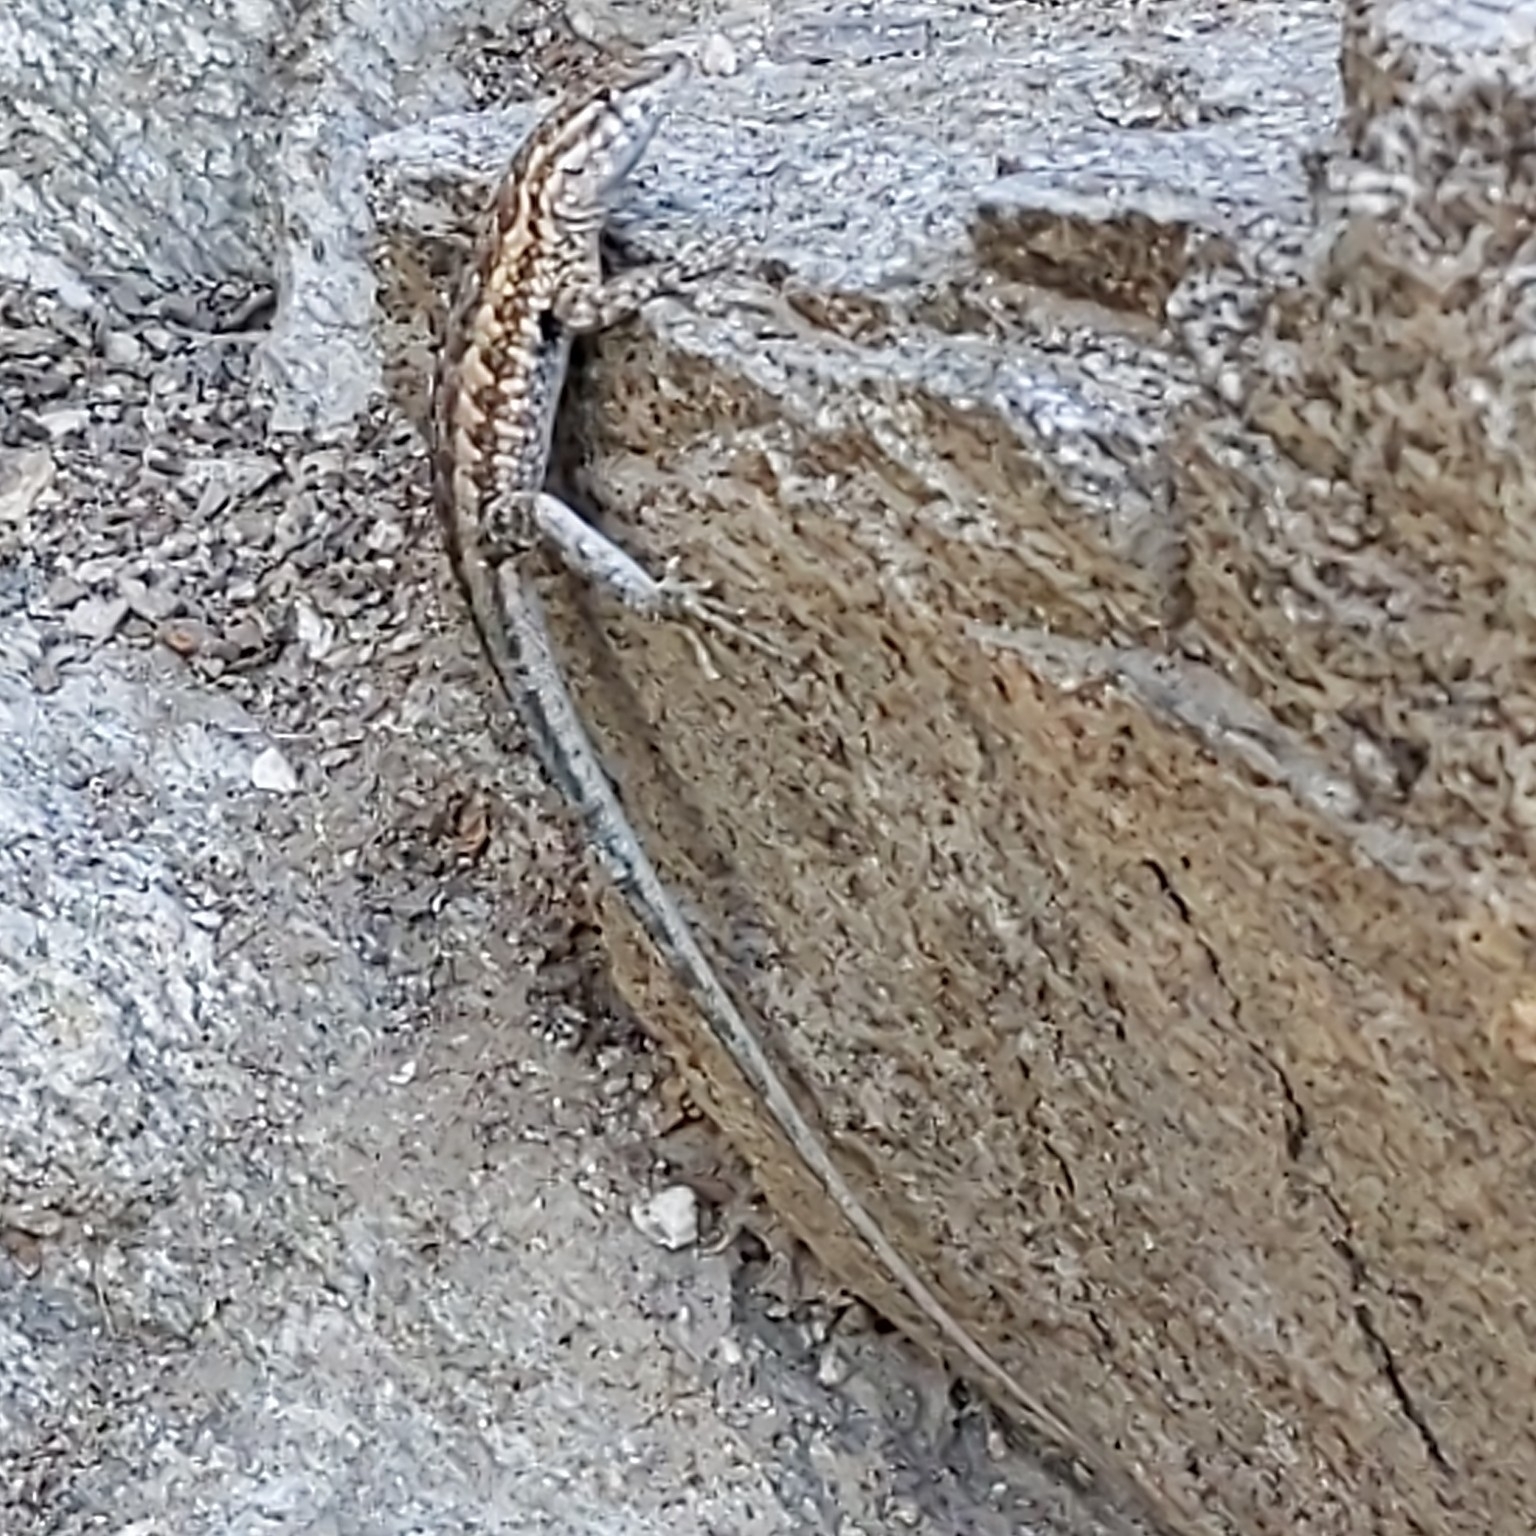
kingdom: Animalia
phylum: Chordata
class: Squamata
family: Phrynosomatidae
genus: Uta
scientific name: Uta stansburiana
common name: Side-blotched lizard
